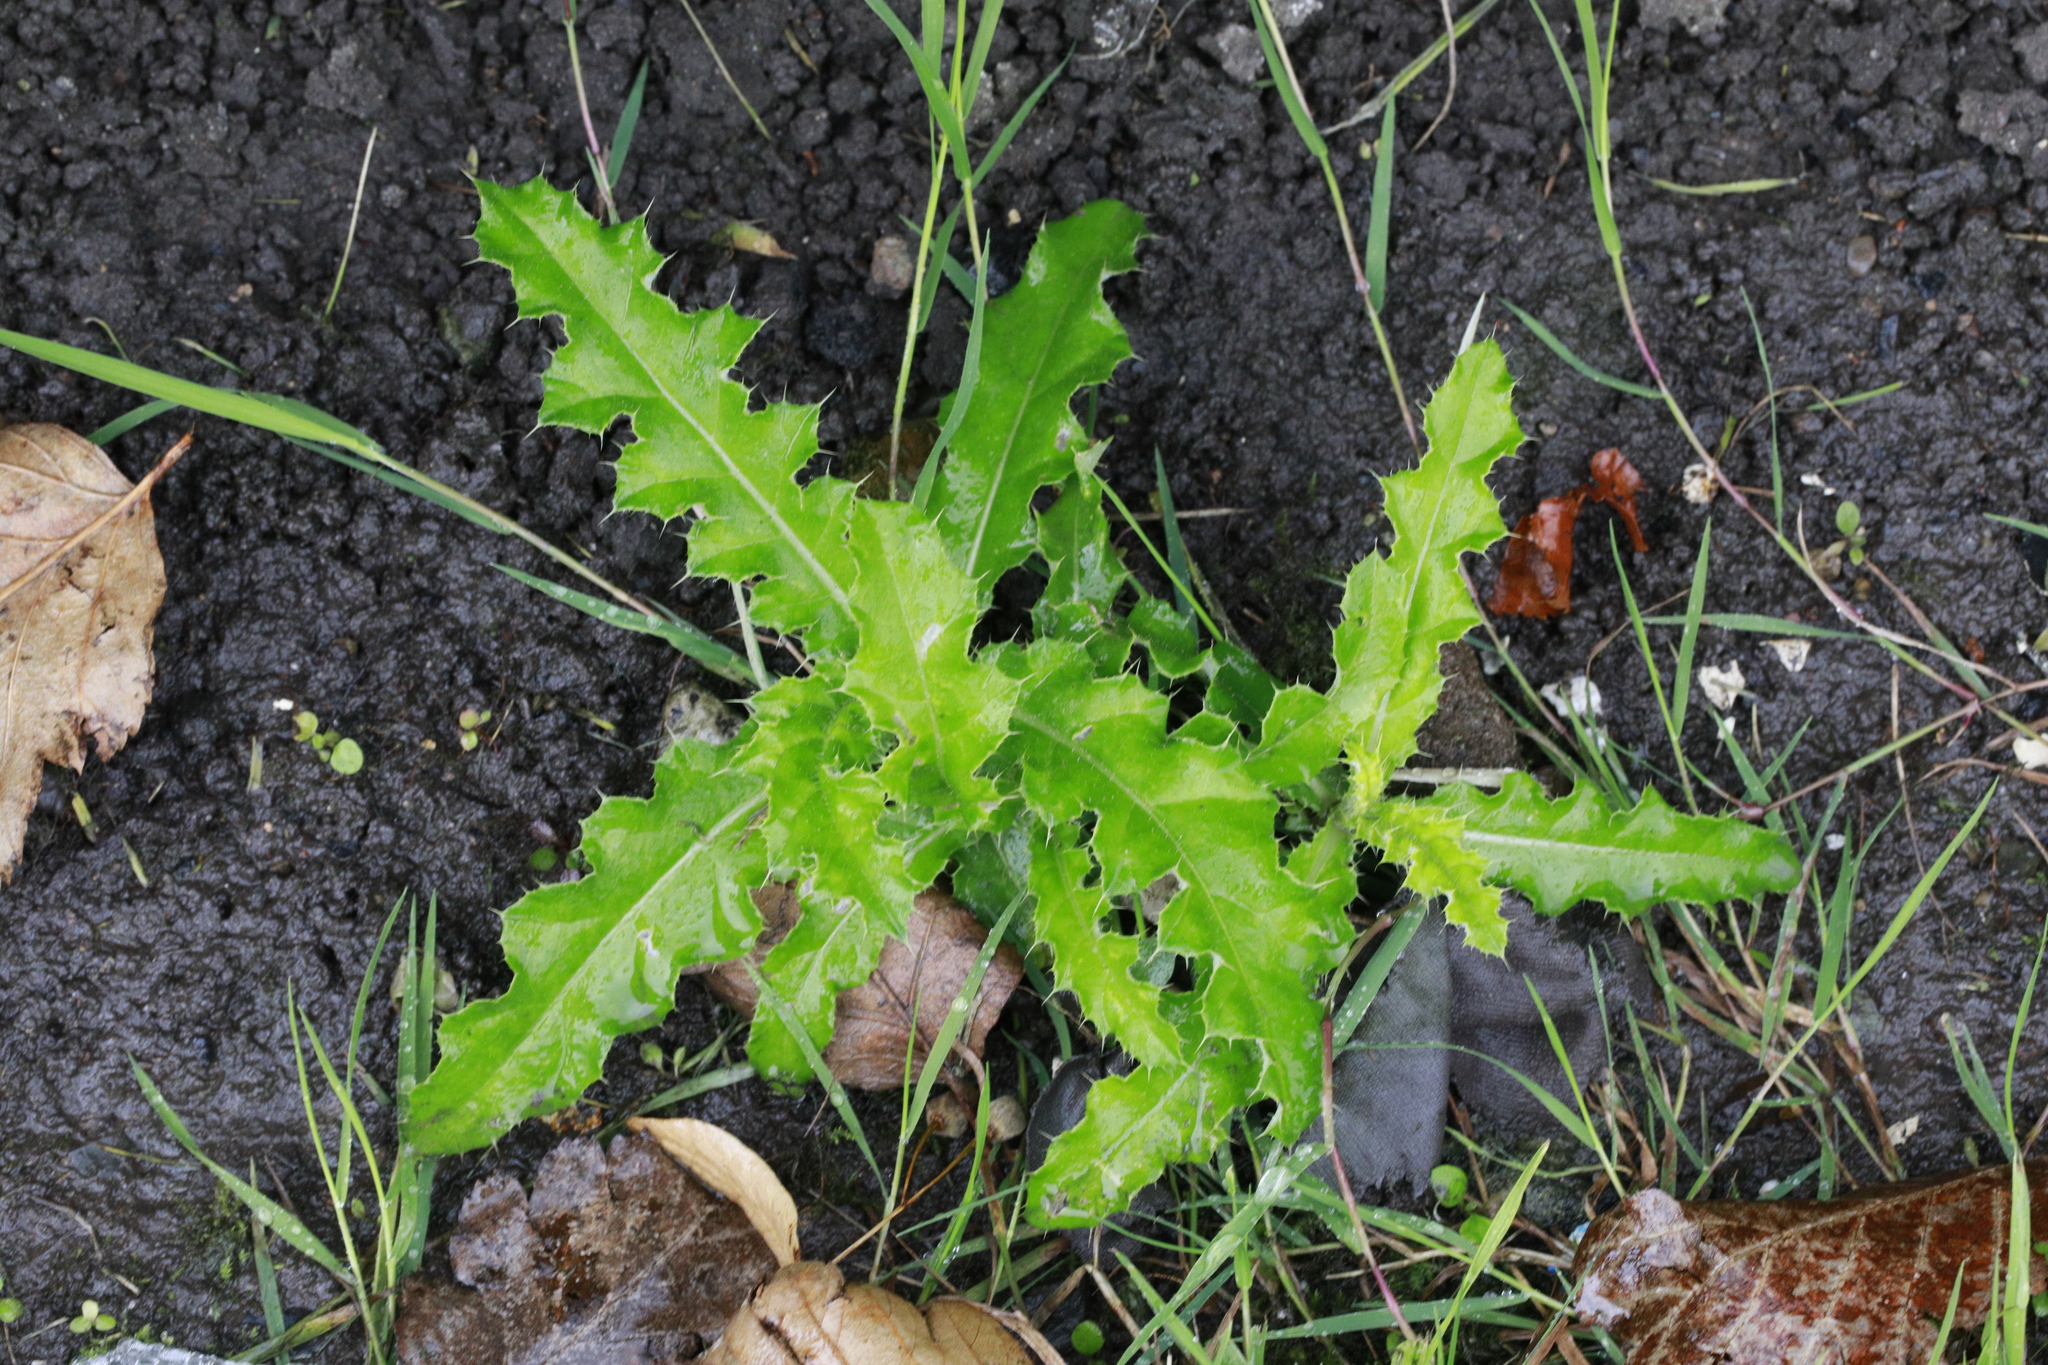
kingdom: Plantae
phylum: Tracheophyta
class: Magnoliopsida
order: Asterales
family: Asteraceae
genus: Cirsium
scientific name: Cirsium arvense
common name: Creeping thistle
